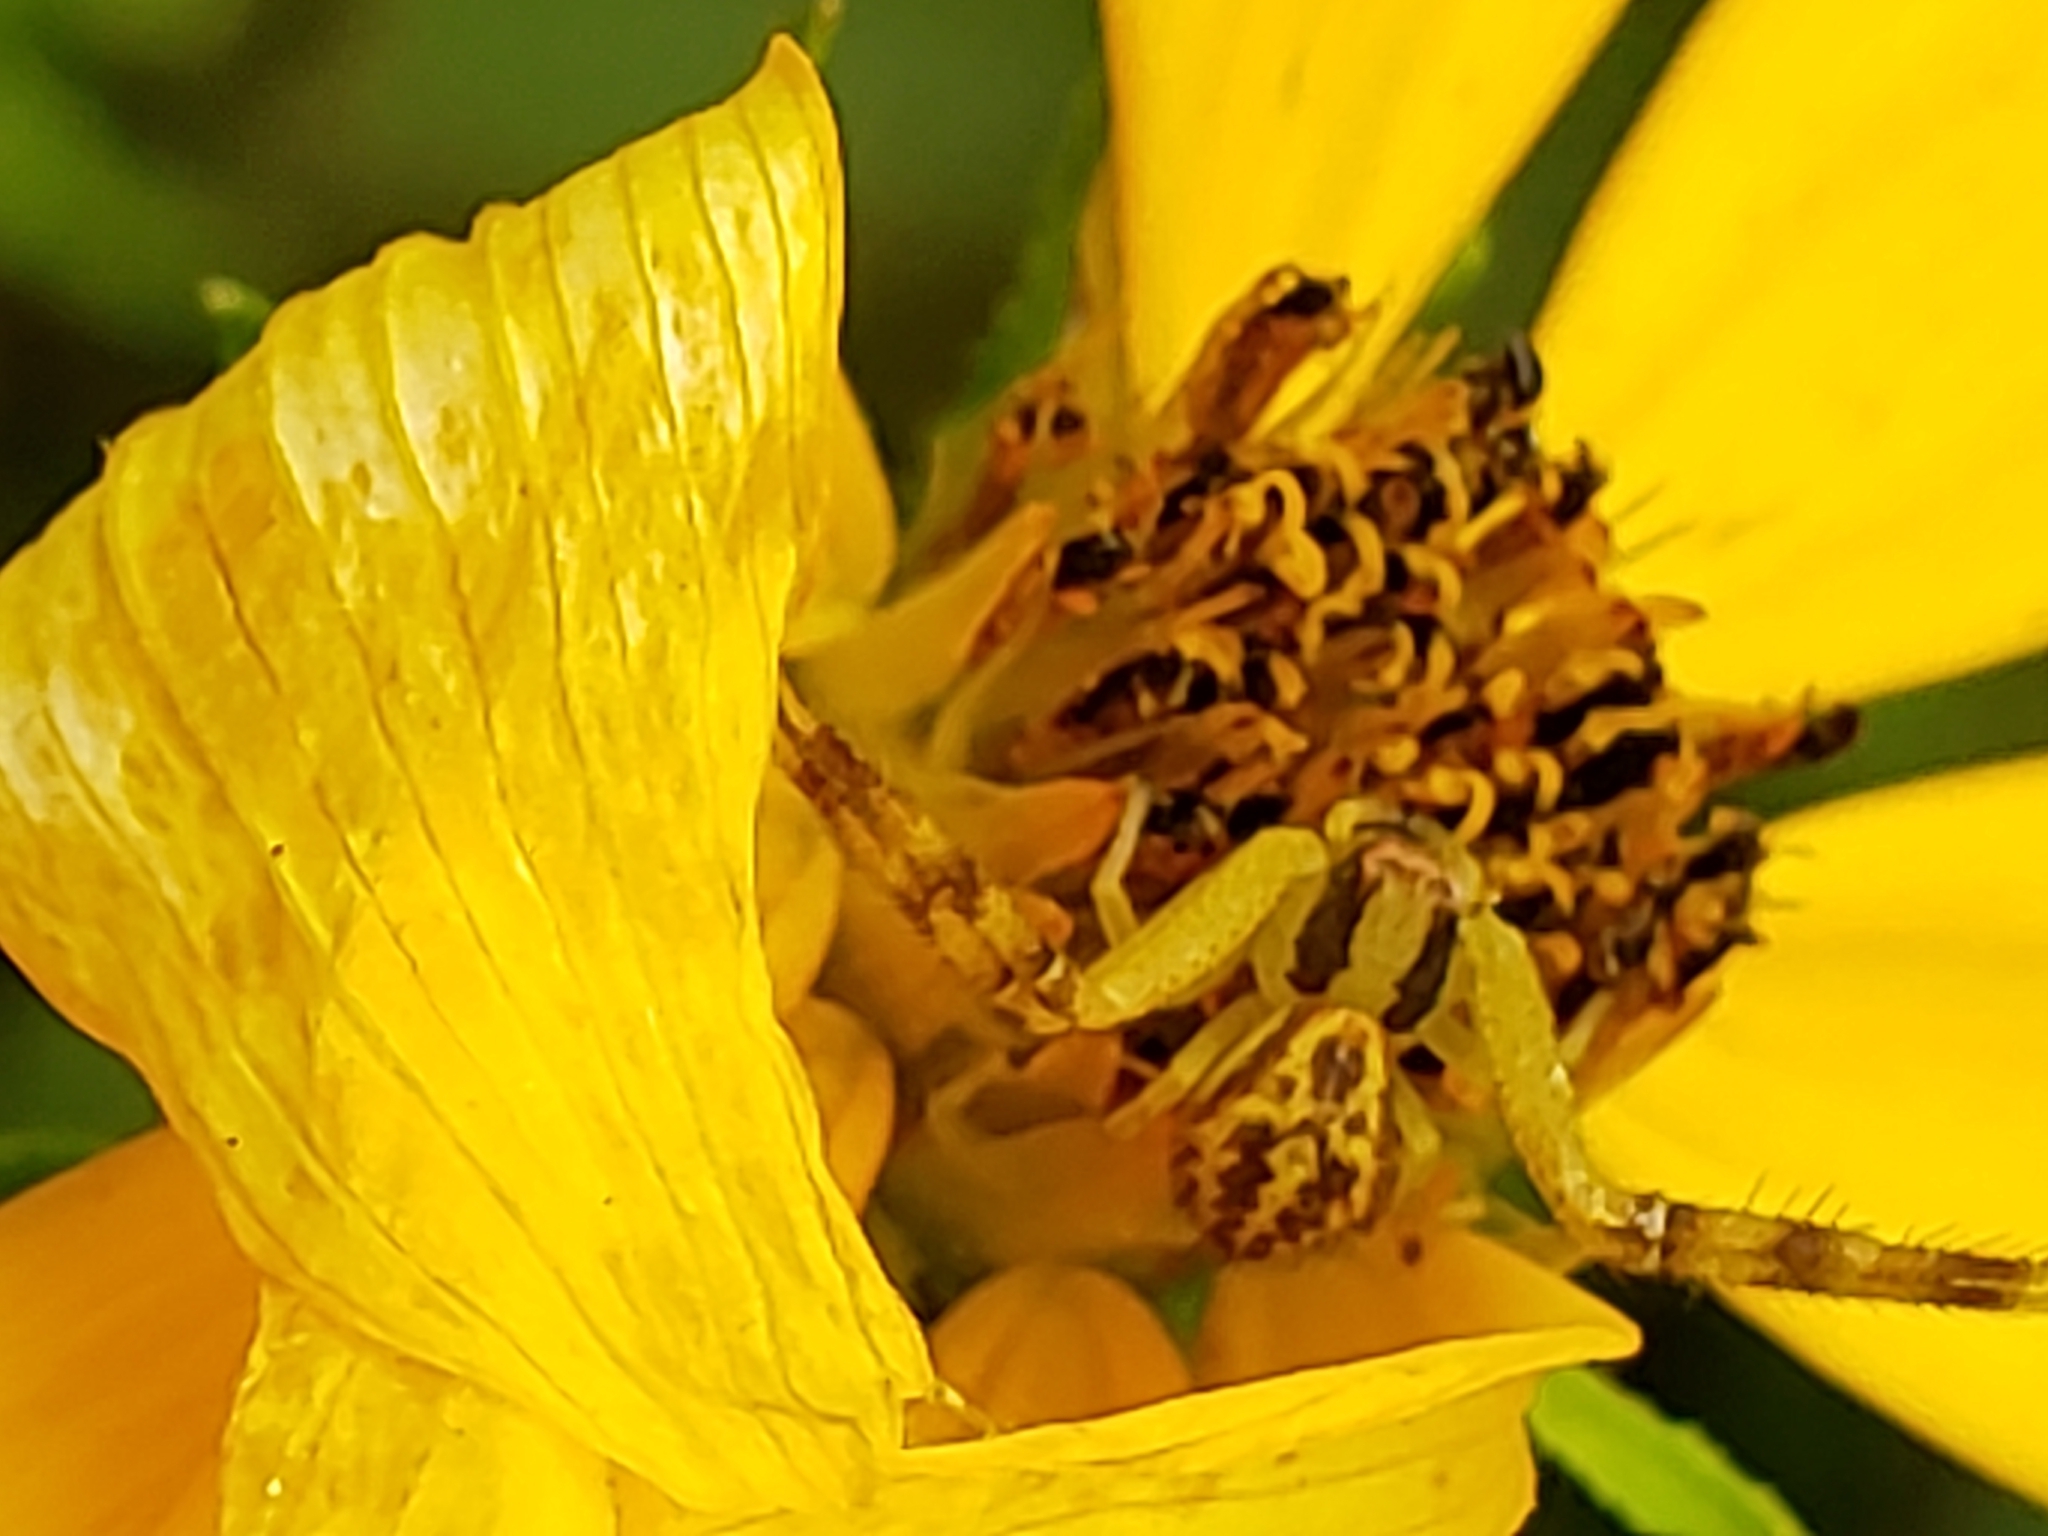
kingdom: Animalia
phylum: Arthropoda
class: Arachnida
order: Araneae
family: Thomisidae
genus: Mecaphesa
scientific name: Mecaphesa asperata
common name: Crab spiders
